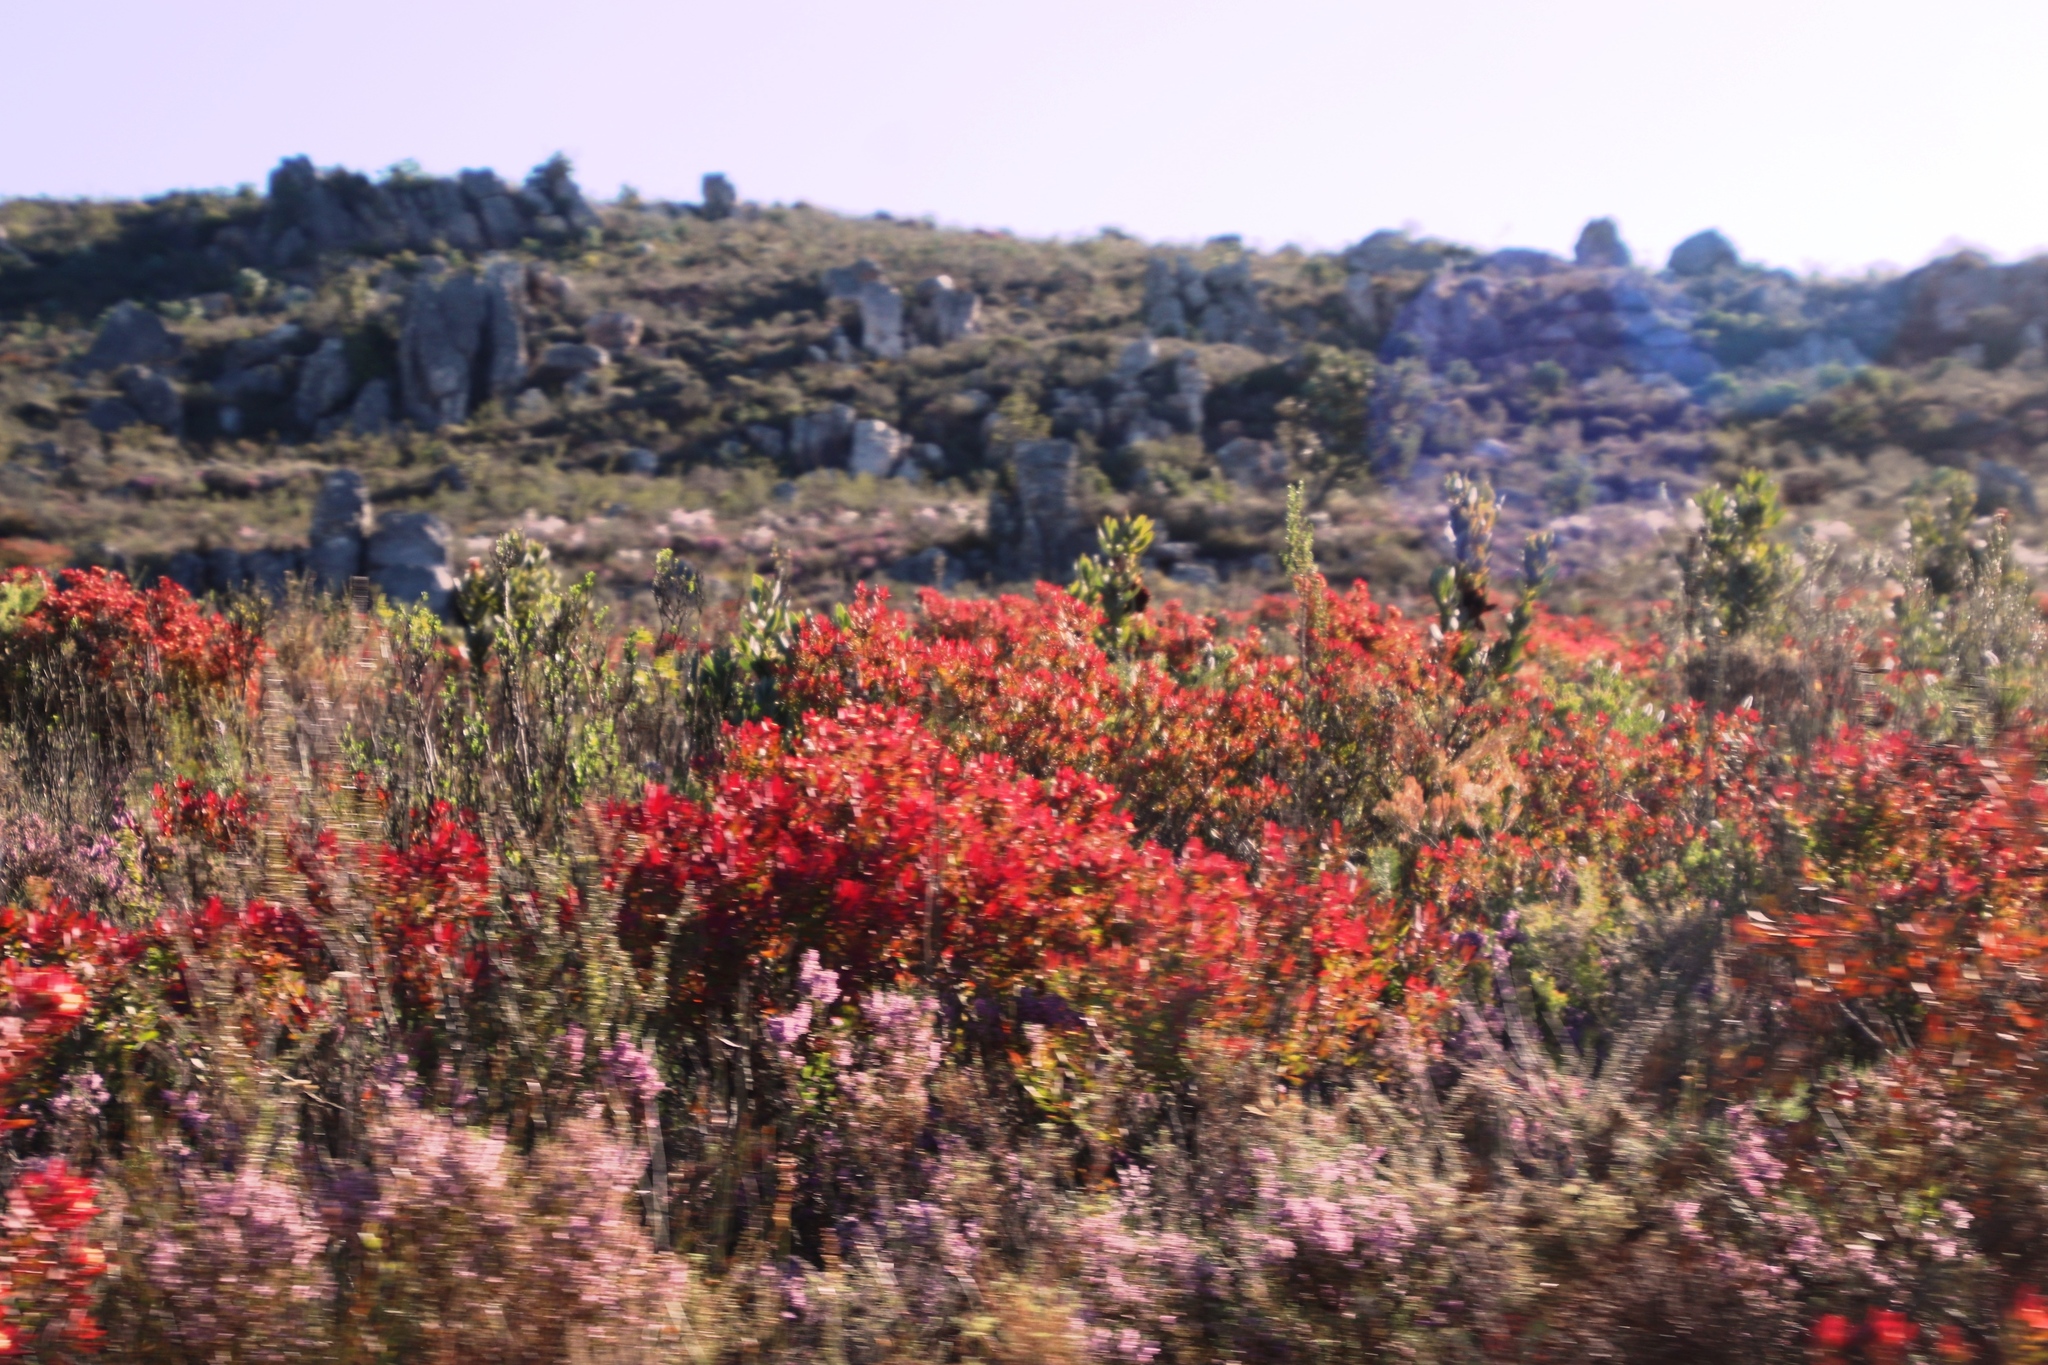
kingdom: Plantae
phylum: Tracheophyta
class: Magnoliopsida
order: Proteales
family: Proteaceae
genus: Leucadendron
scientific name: Leucadendron glaberrimum
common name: Common oily conebush
